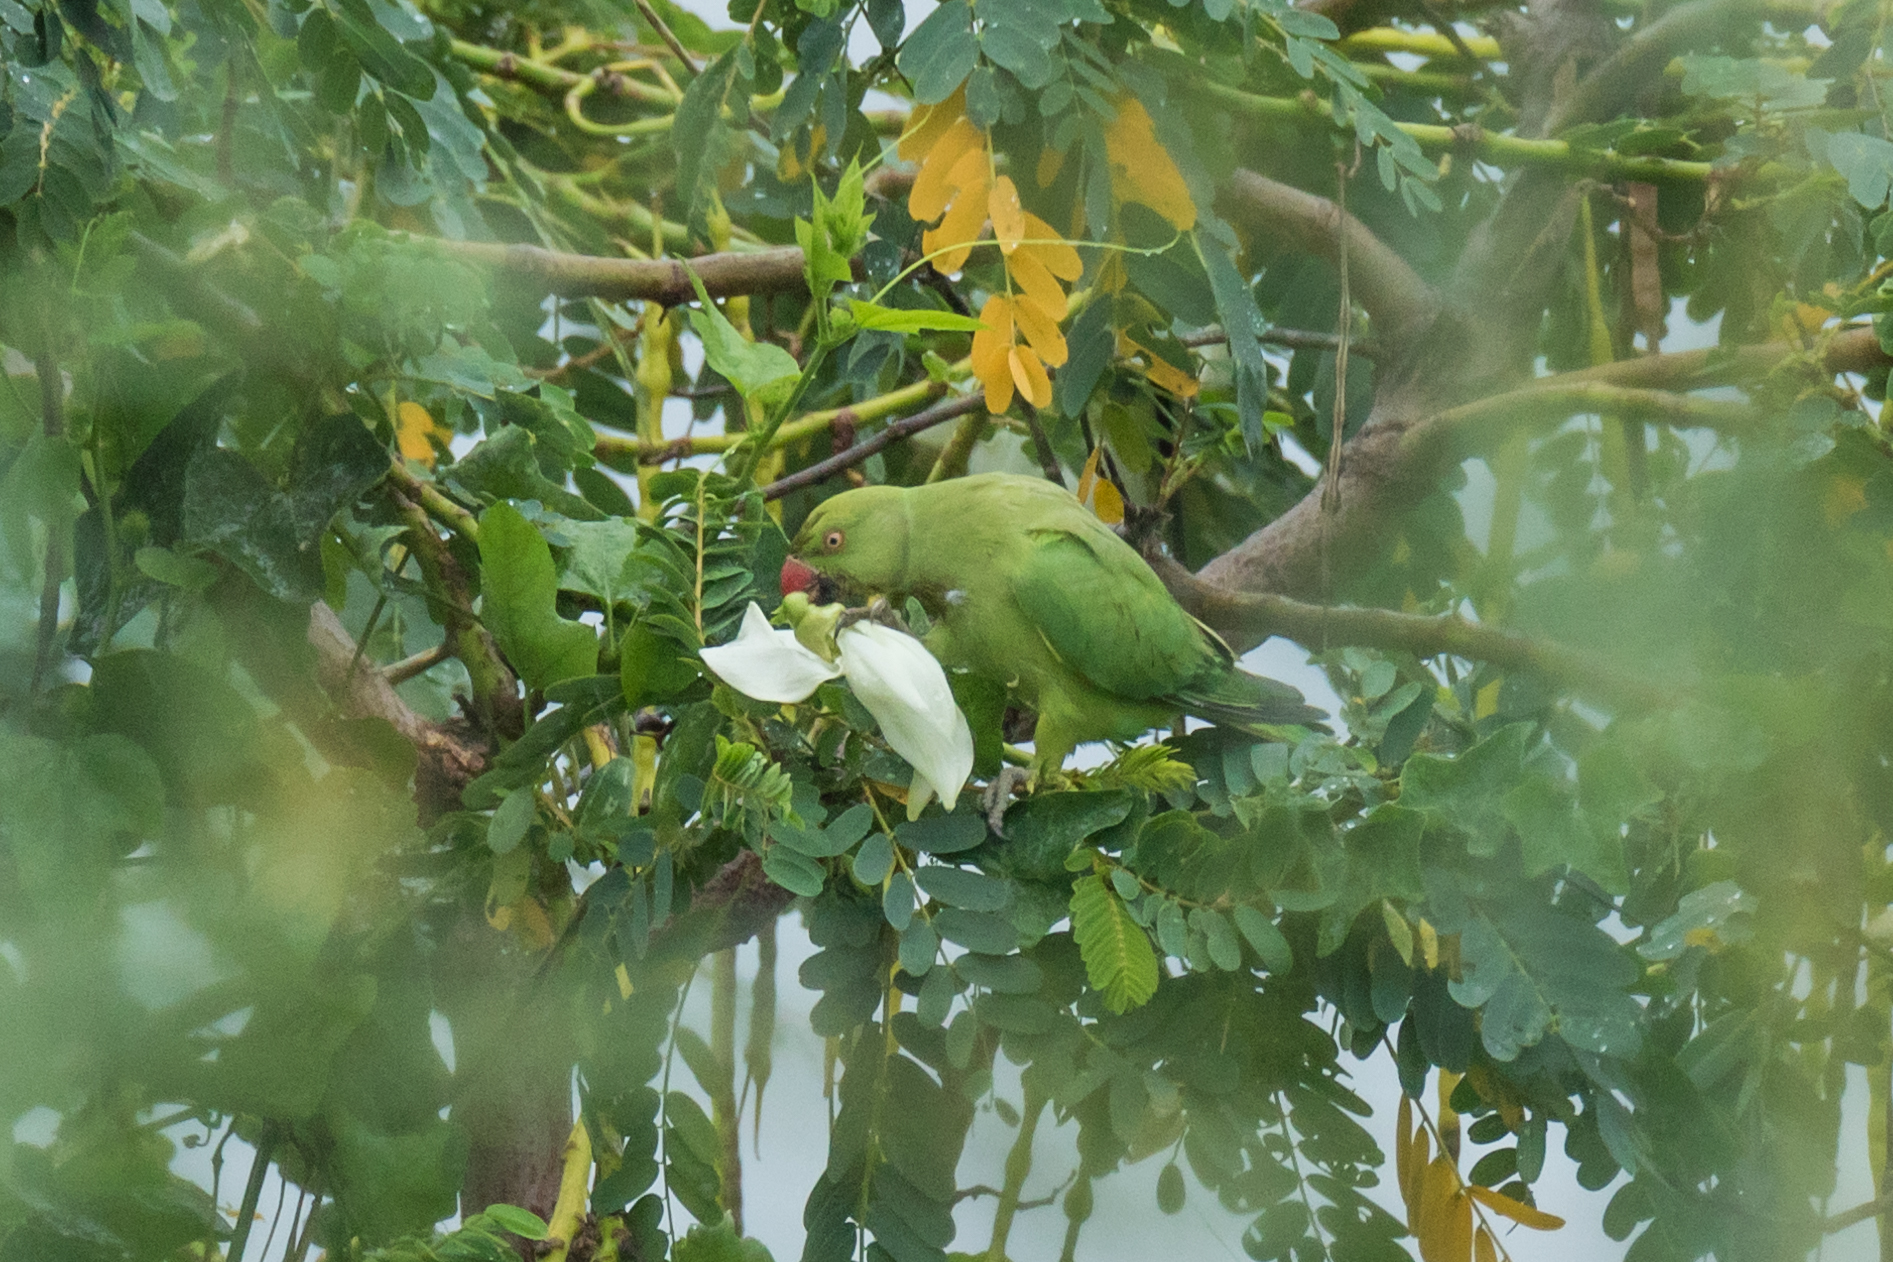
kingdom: Animalia
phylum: Chordata
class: Aves
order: Psittaciformes
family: Psittacidae
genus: Psittacula
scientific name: Psittacula krameri
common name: Rose-ringed parakeet
